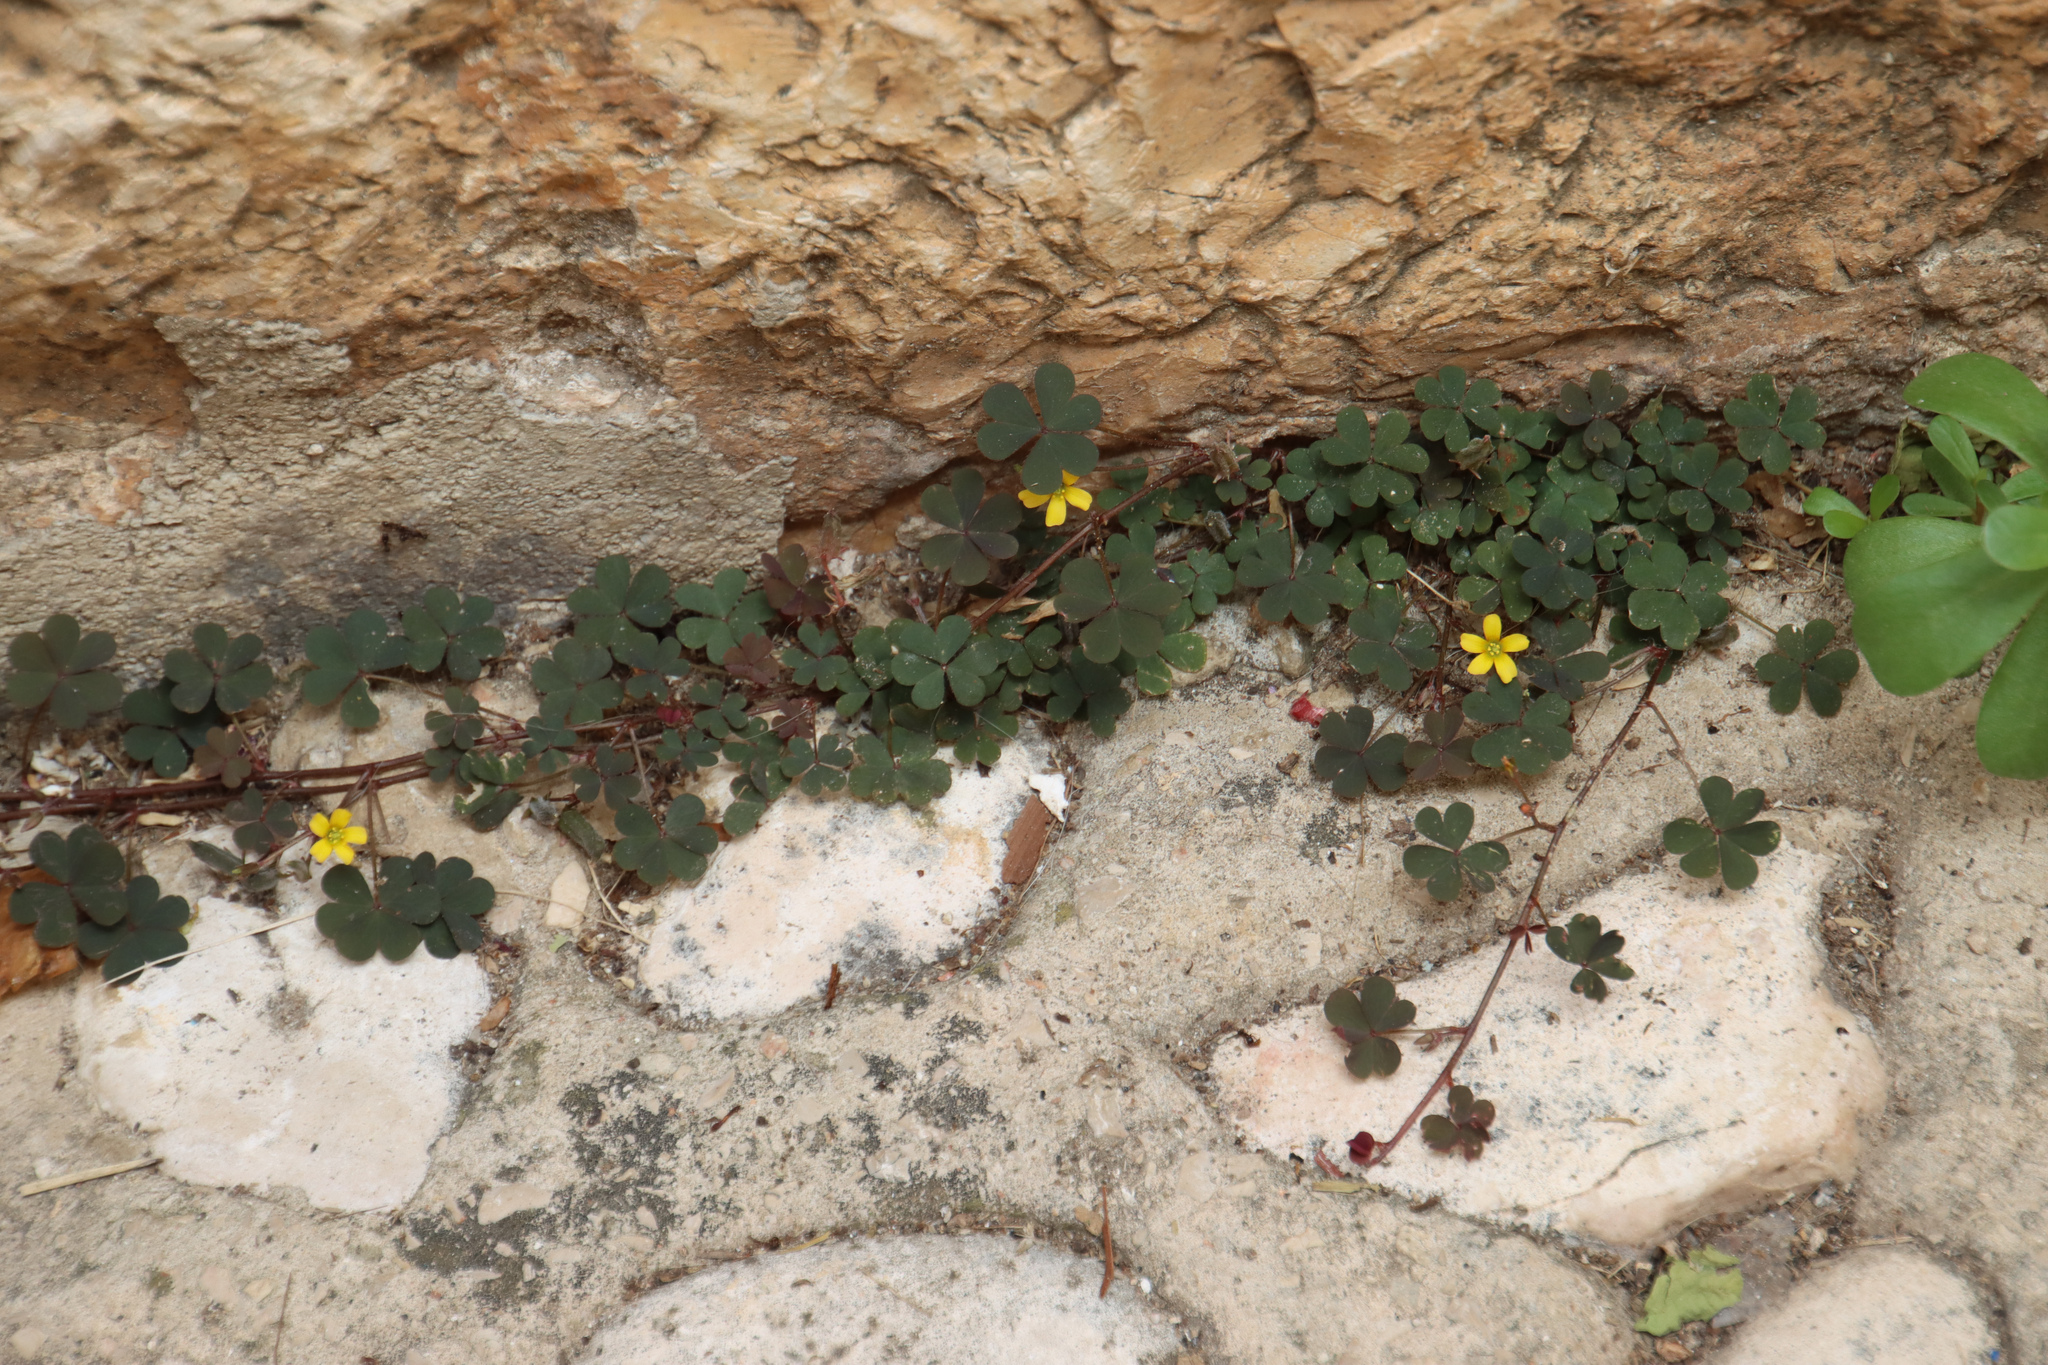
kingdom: Plantae
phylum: Tracheophyta
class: Magnoliopsida
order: Oxalidales
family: Oxalidaceae
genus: Oxalis
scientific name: Oxalis corniculata
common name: Procumbent yellow-sorrel
